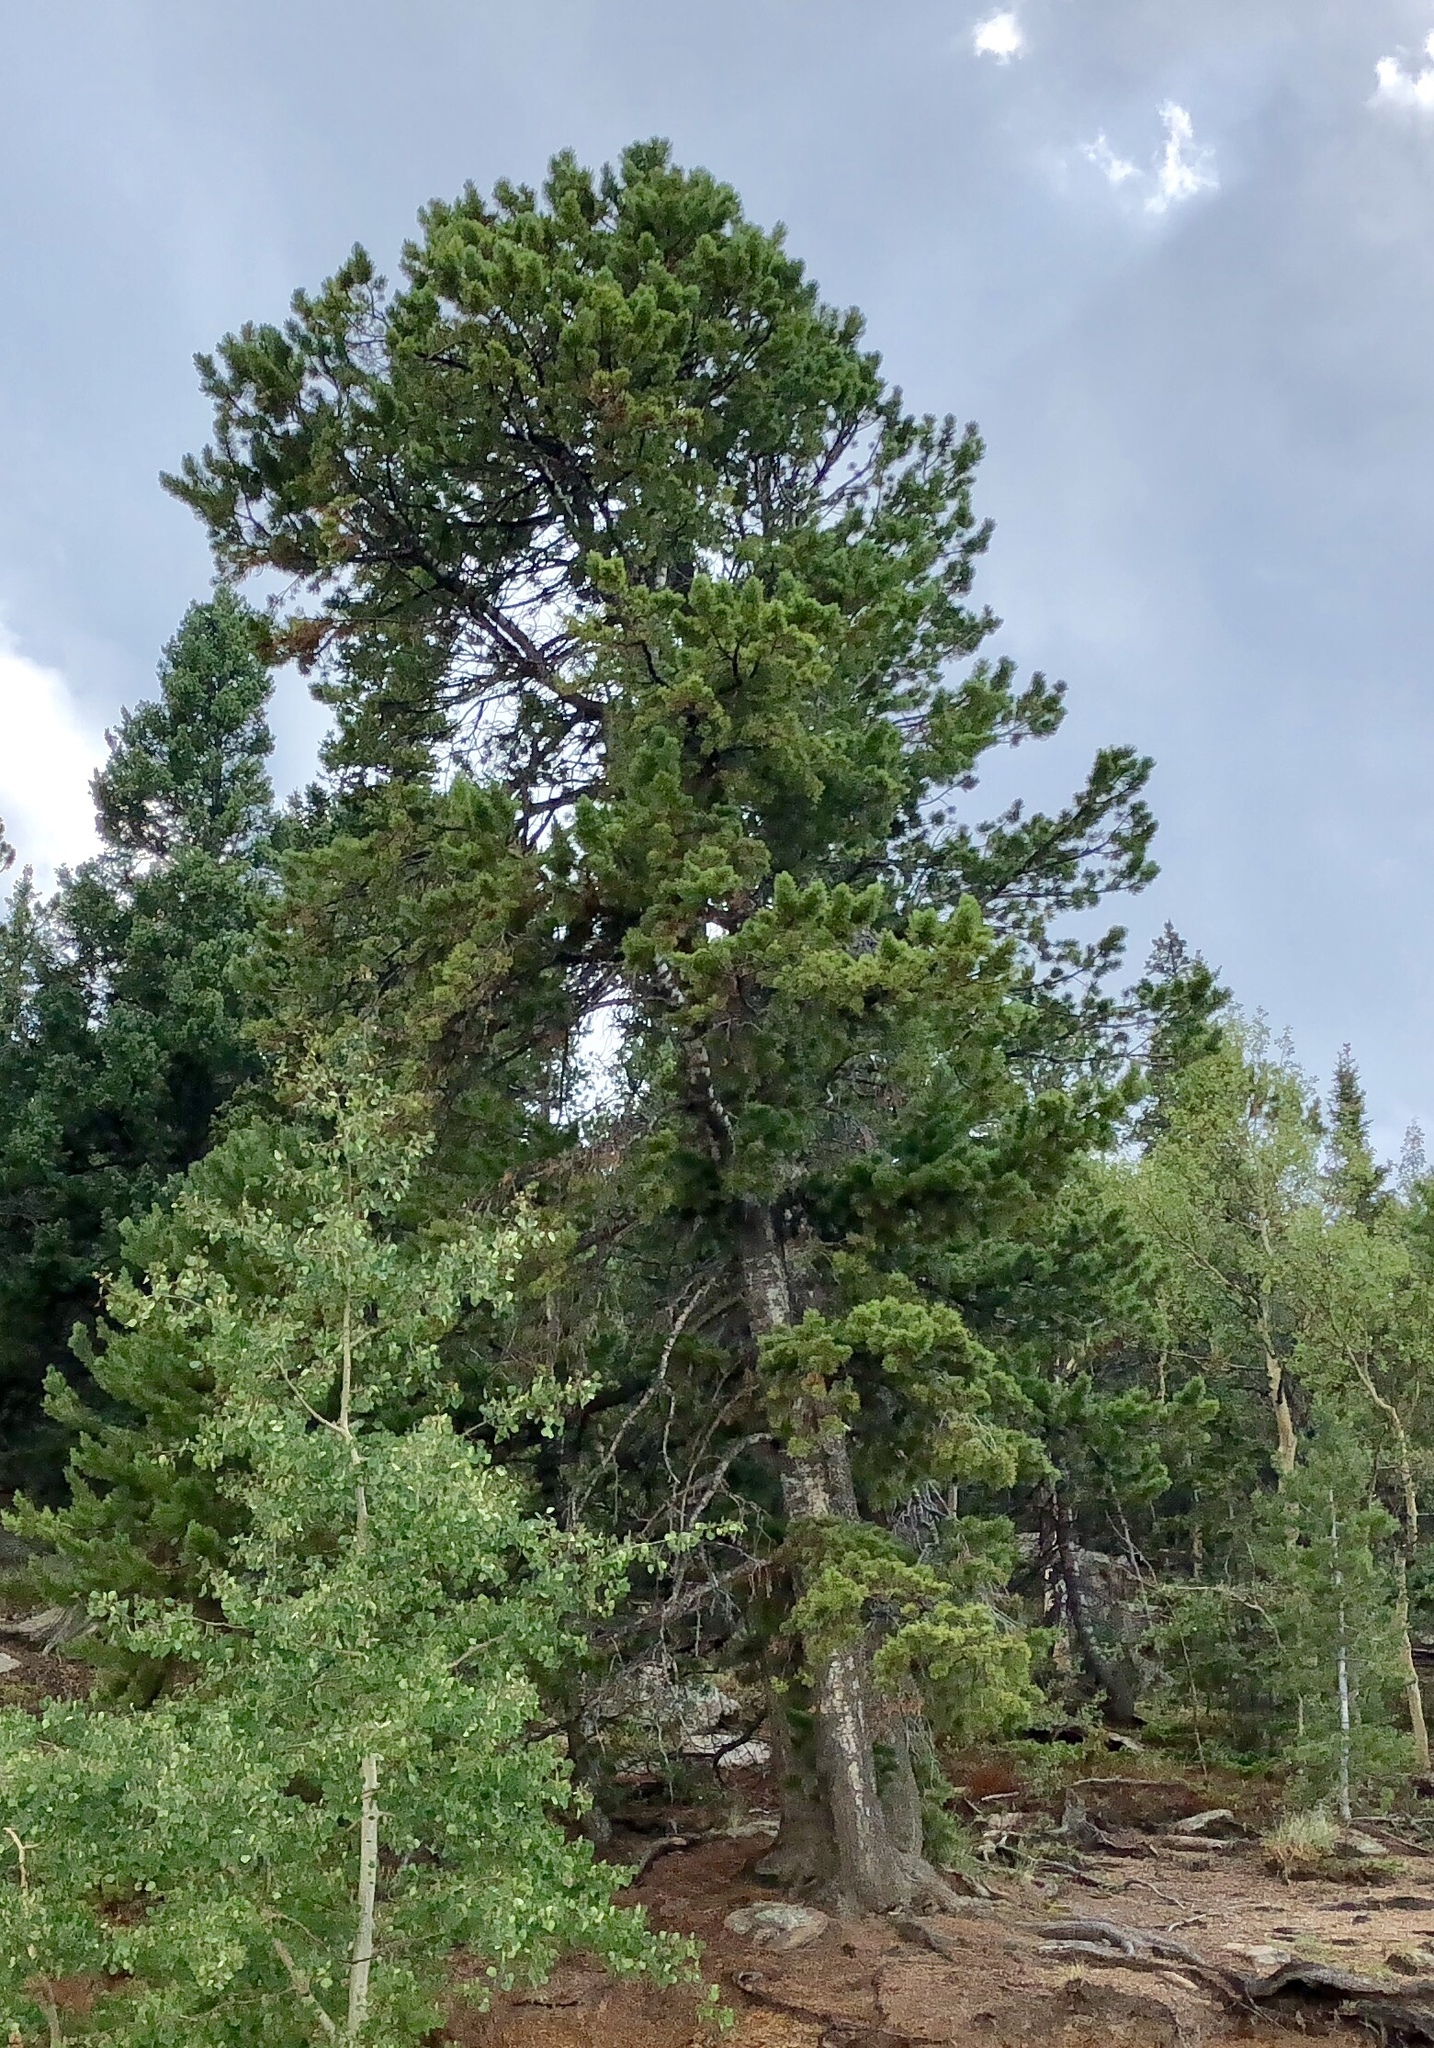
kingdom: Plantae
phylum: Tracheophyta
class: Pinopsida
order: Pinales
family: Pinaceae
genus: Pinus
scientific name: Pinus flexilis
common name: Limber pine
